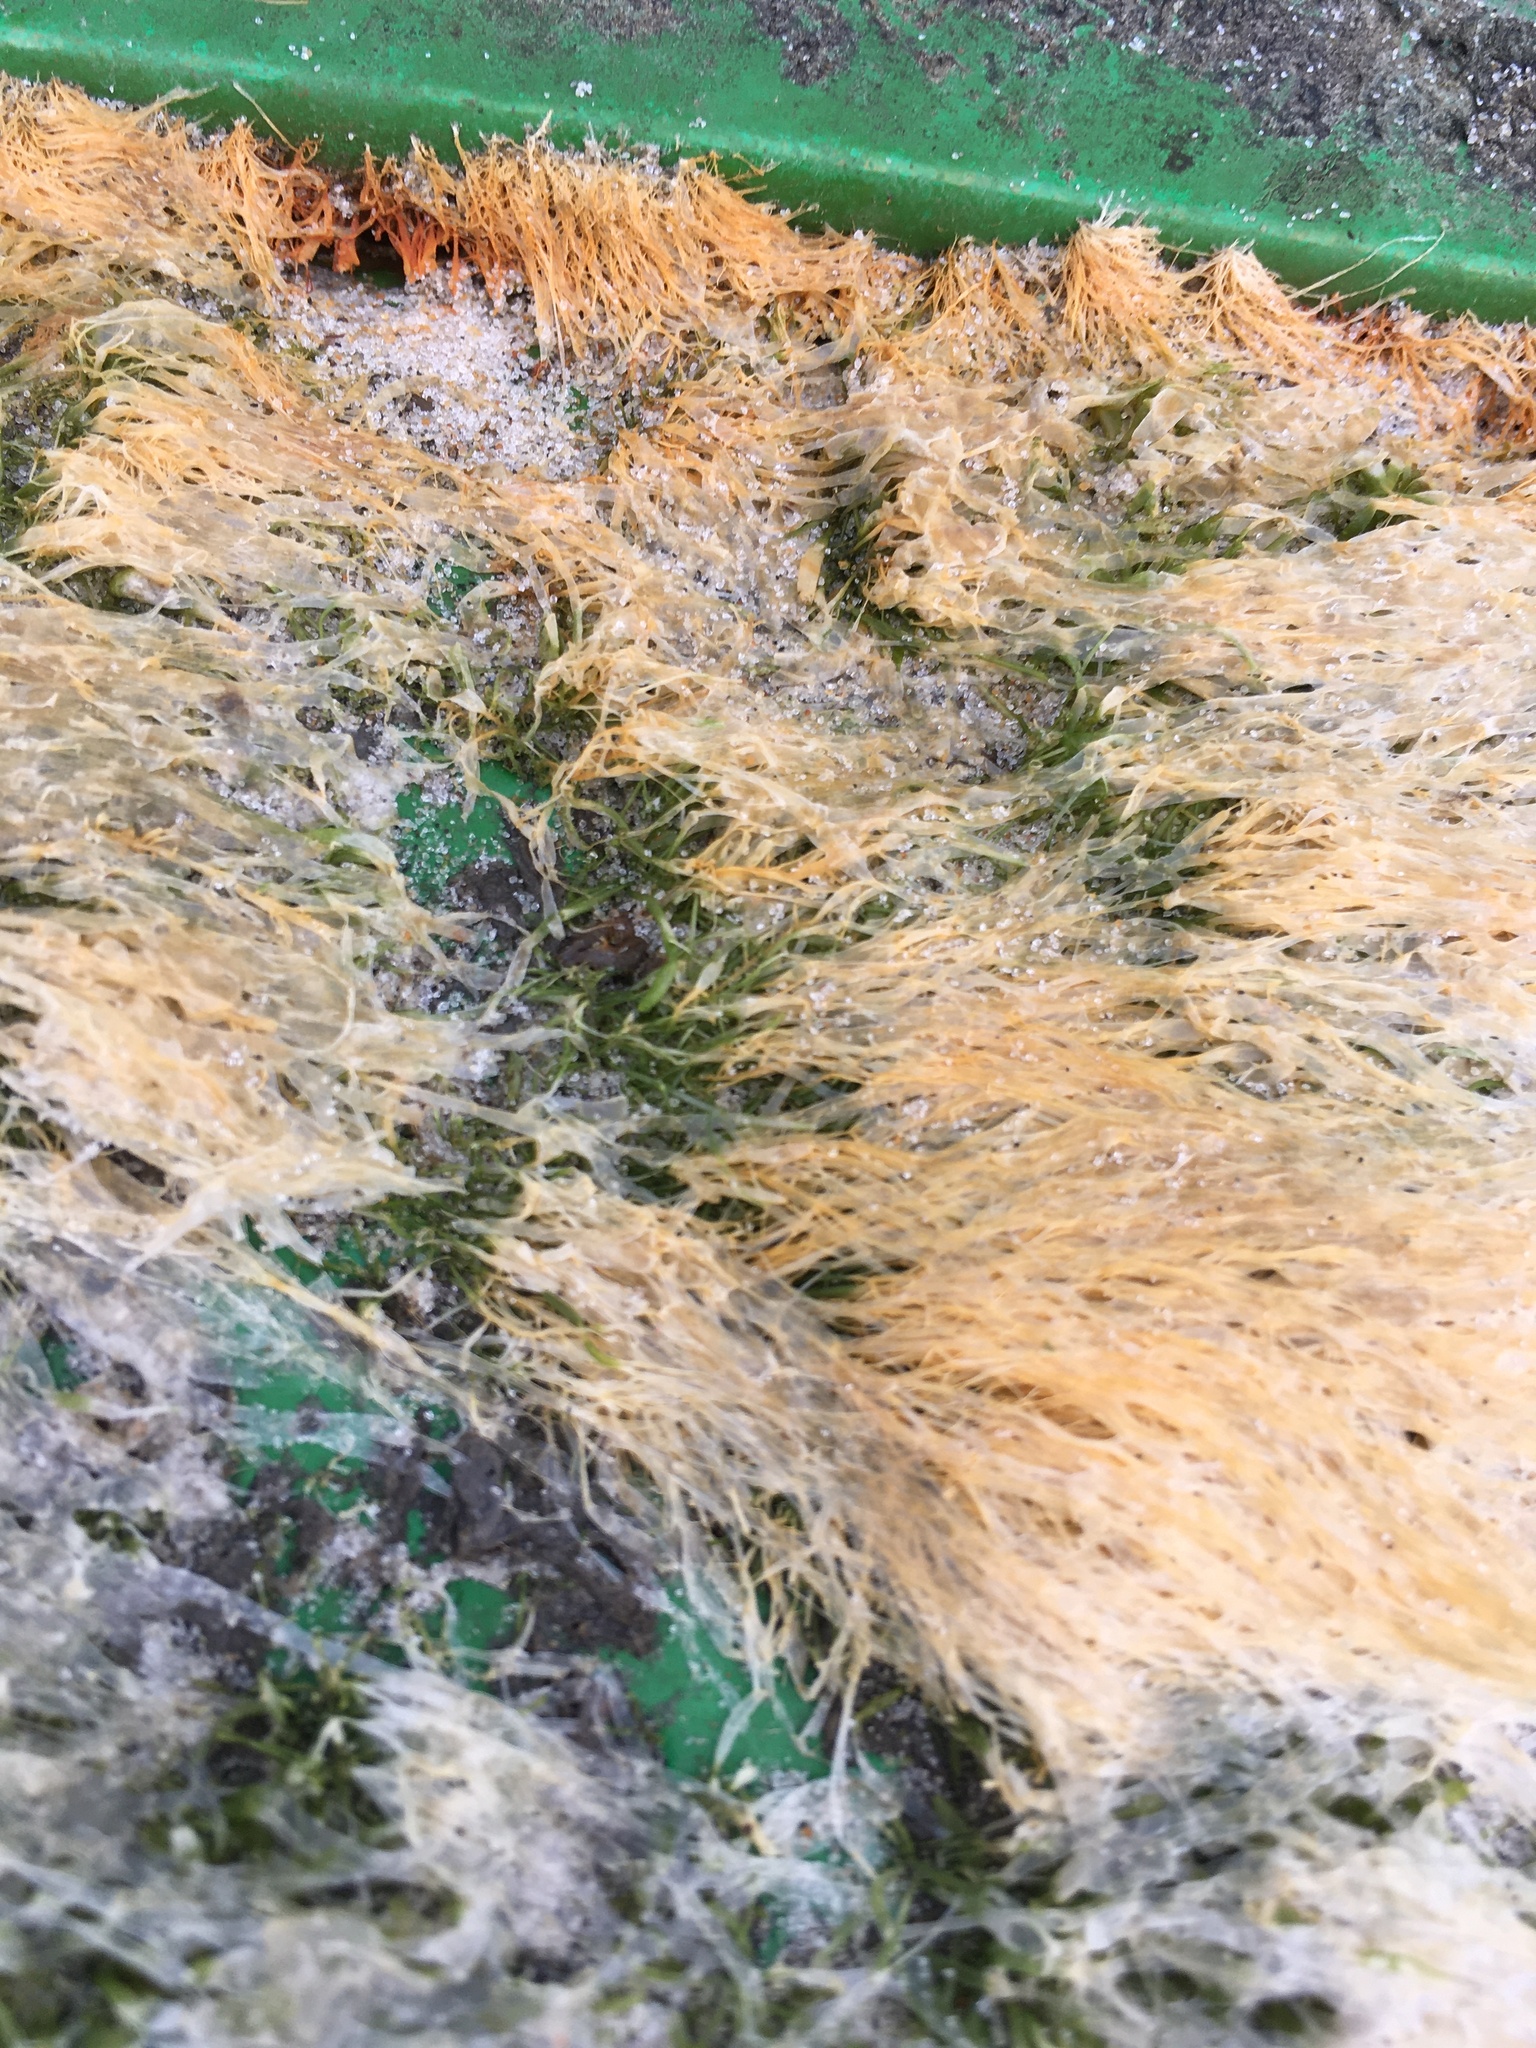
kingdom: Plantae
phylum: Chlorophyta
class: Ulvophyceae
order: Ulvales
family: Ulvaceae
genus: Ulva
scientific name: Ulva intestinalis
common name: Gut weed
